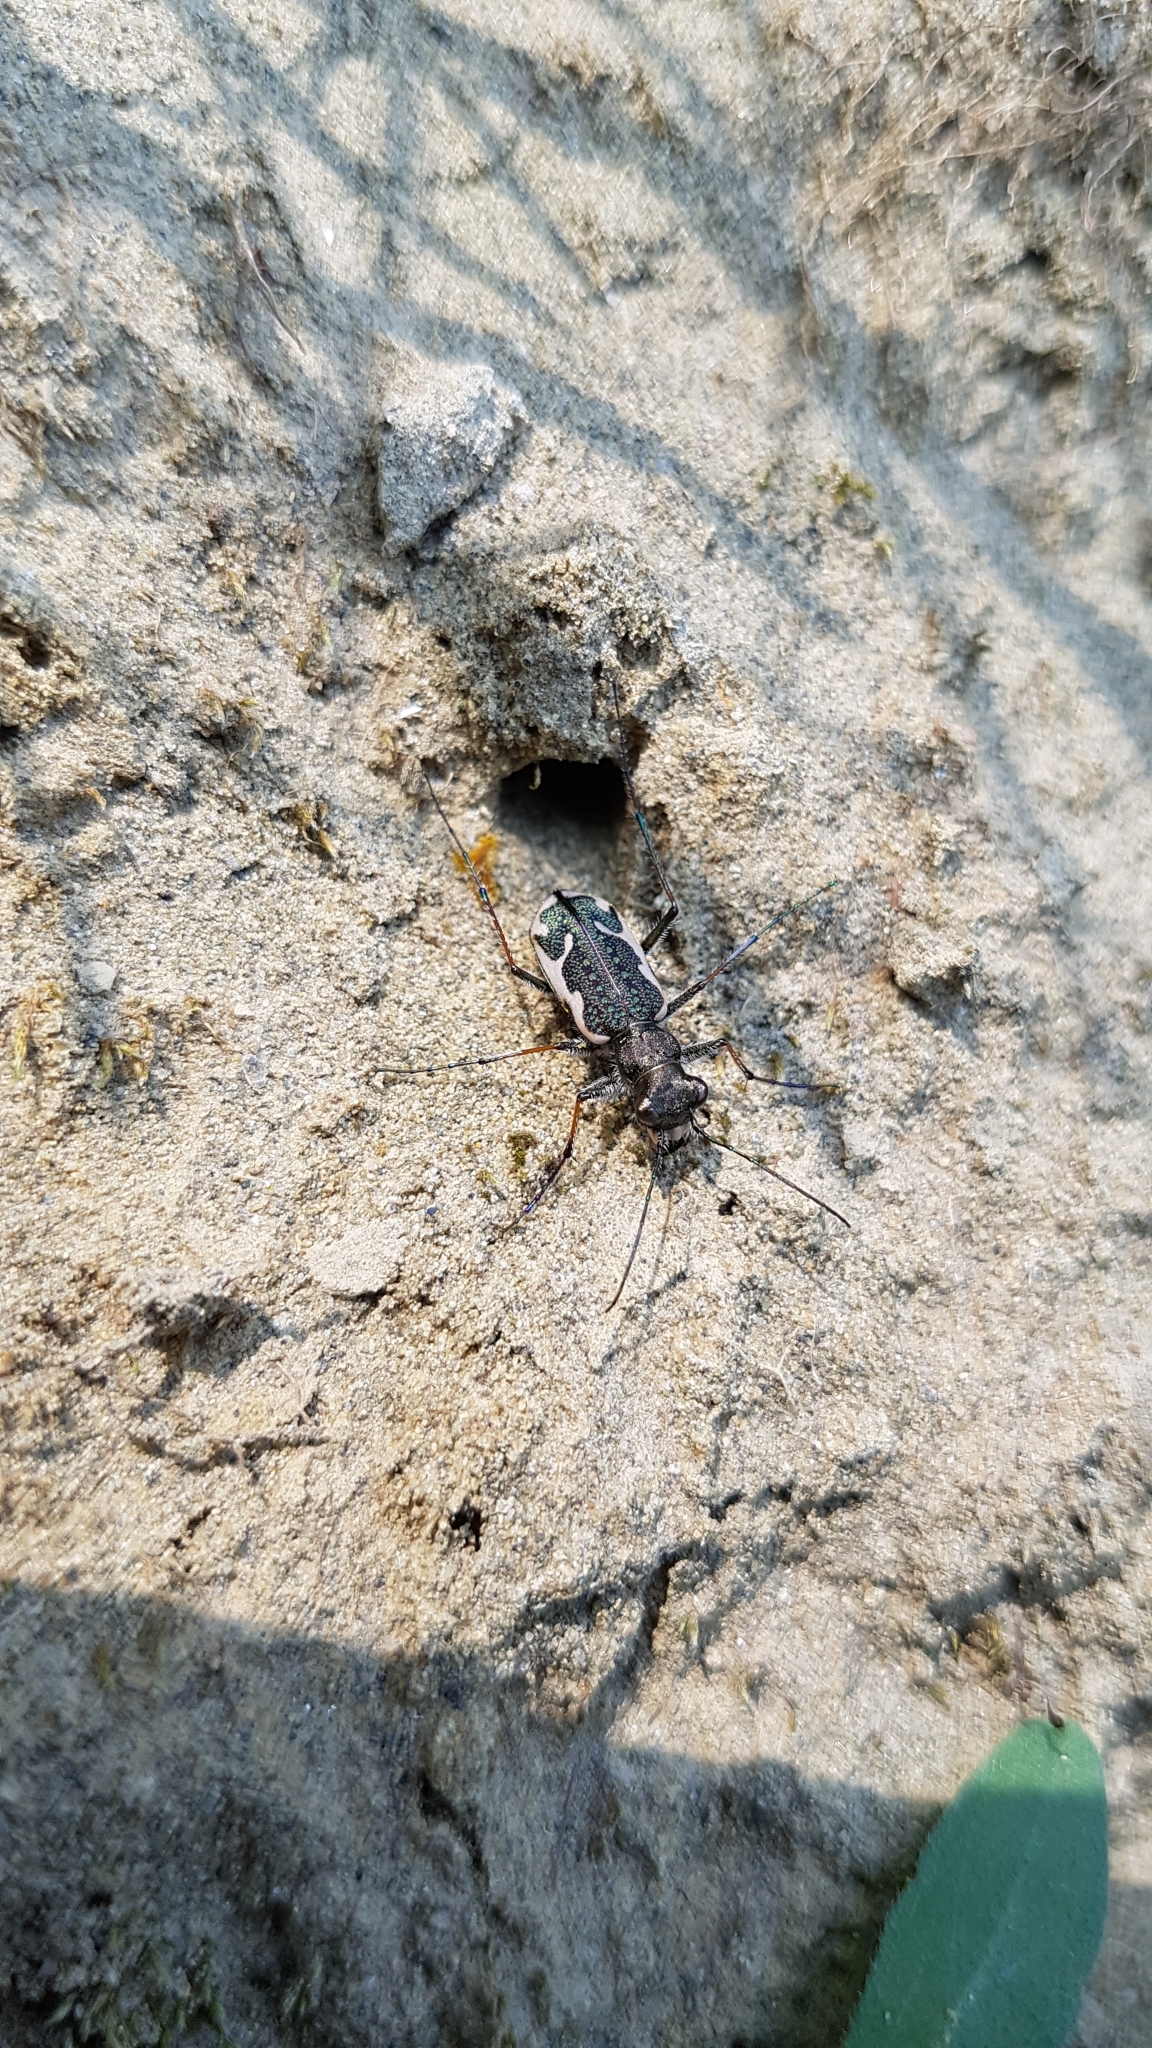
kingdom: Animalia
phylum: Arthropoda
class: Insecta
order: Coleoptera
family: Carabidae
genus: Neocicindela
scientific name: Neocicindela tuberculata
